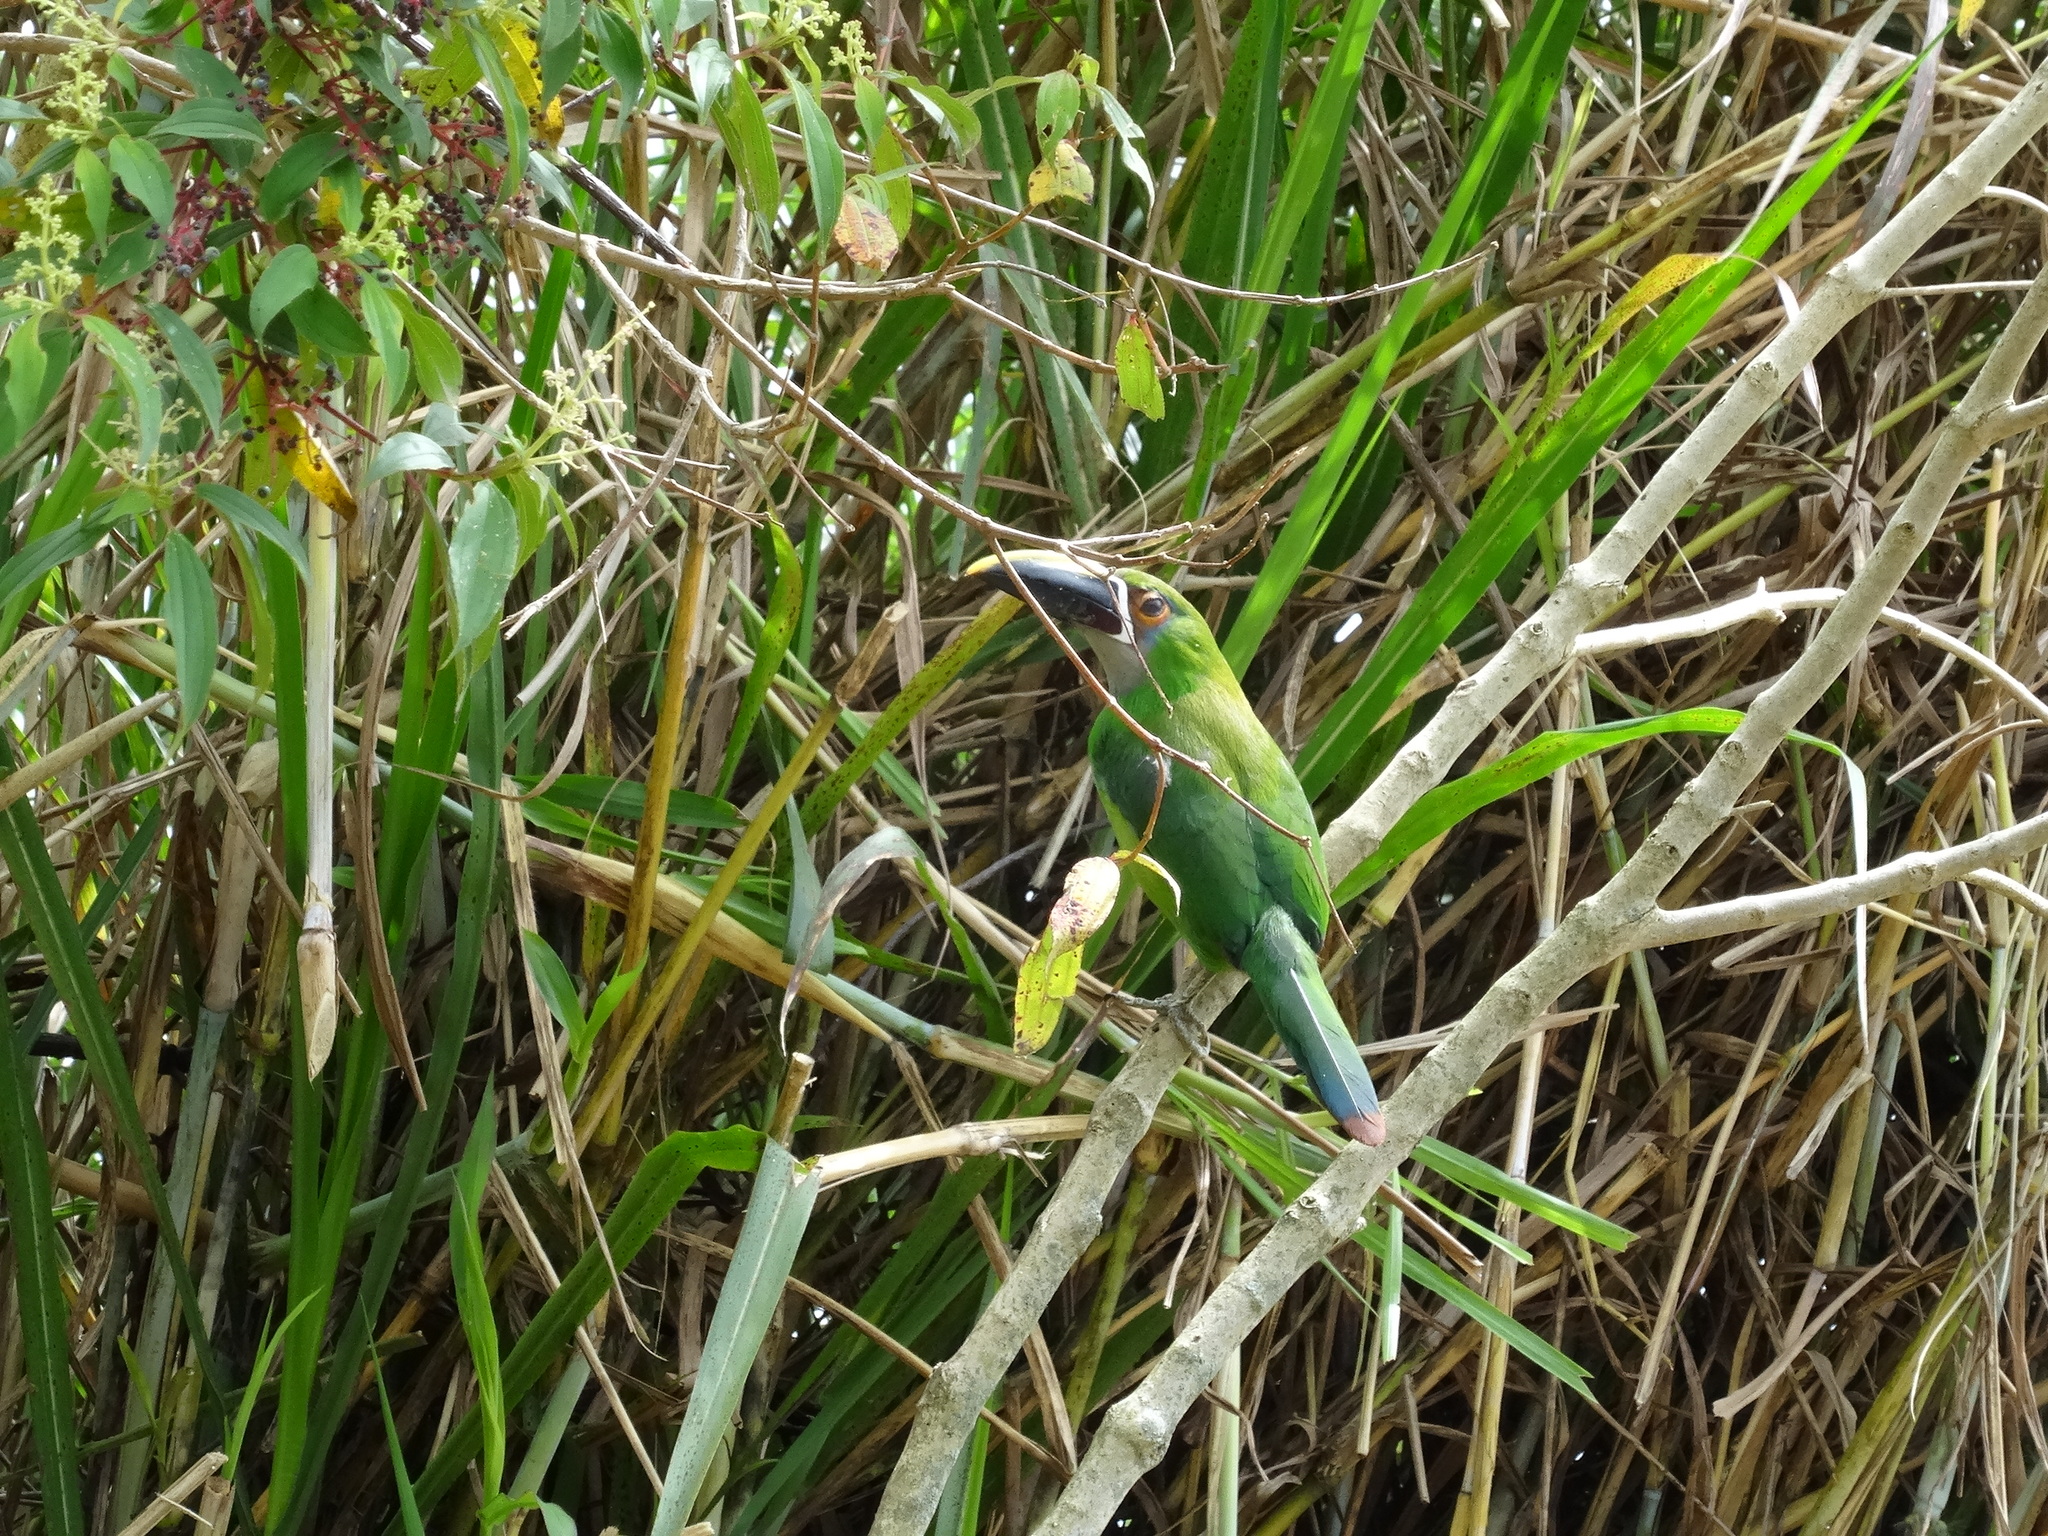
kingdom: Animalia
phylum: Chordata
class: Aves
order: Piciformes
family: Ramphastidae
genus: Aulacorhynchus
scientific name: Aulacorhynchus albivitta
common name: White-throated toucanet
